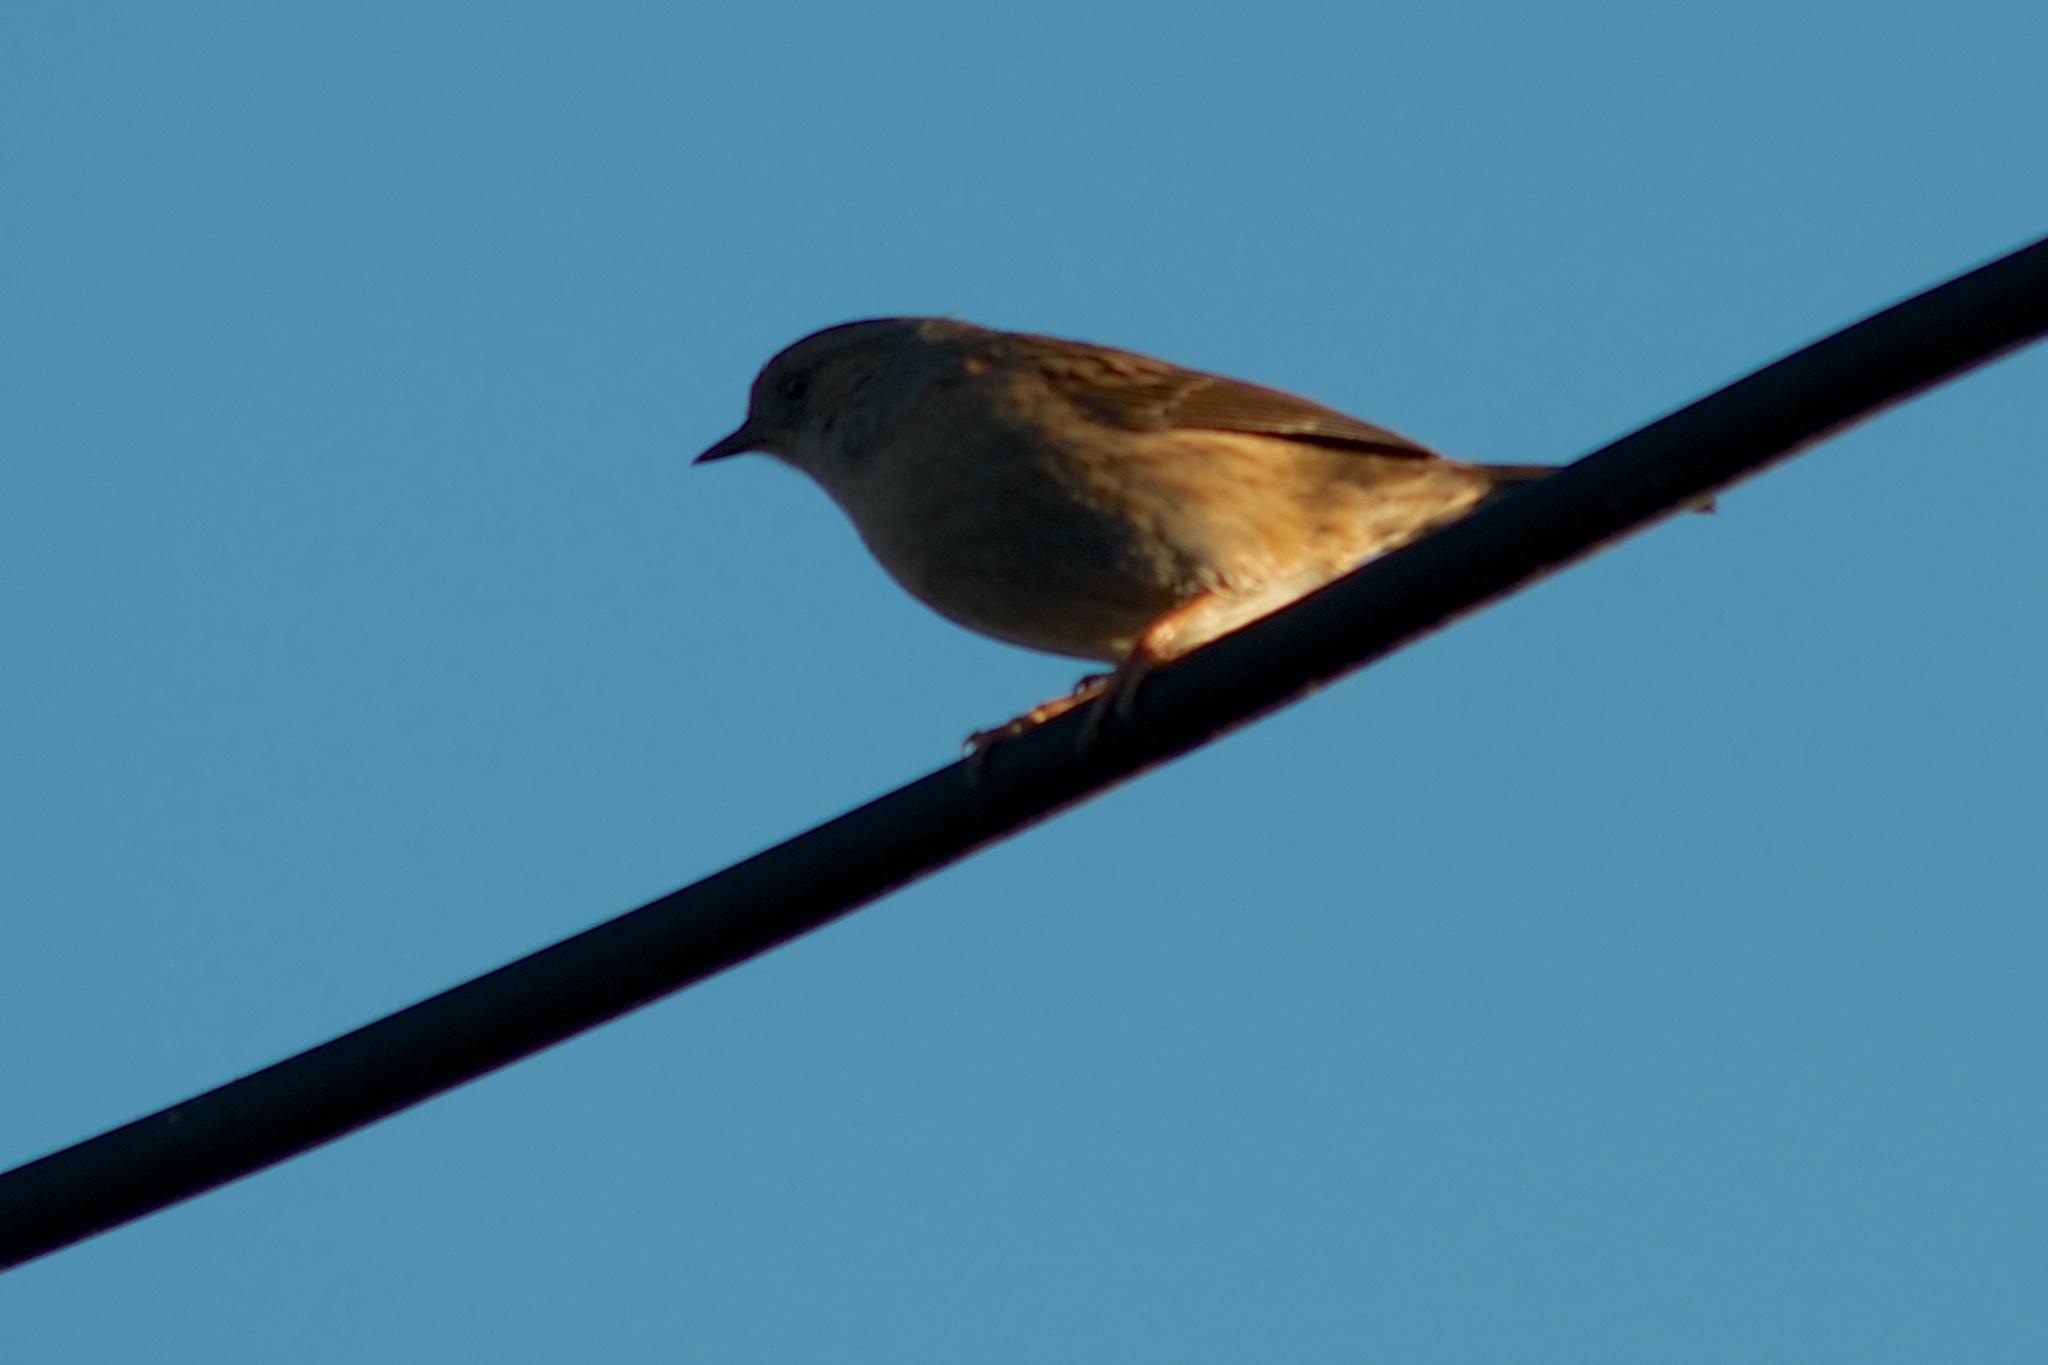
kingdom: Animalia
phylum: Chordata
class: Aves
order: Passeriformes
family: Prunellidae
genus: Prunella
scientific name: Prunella modularis
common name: Dunnock
